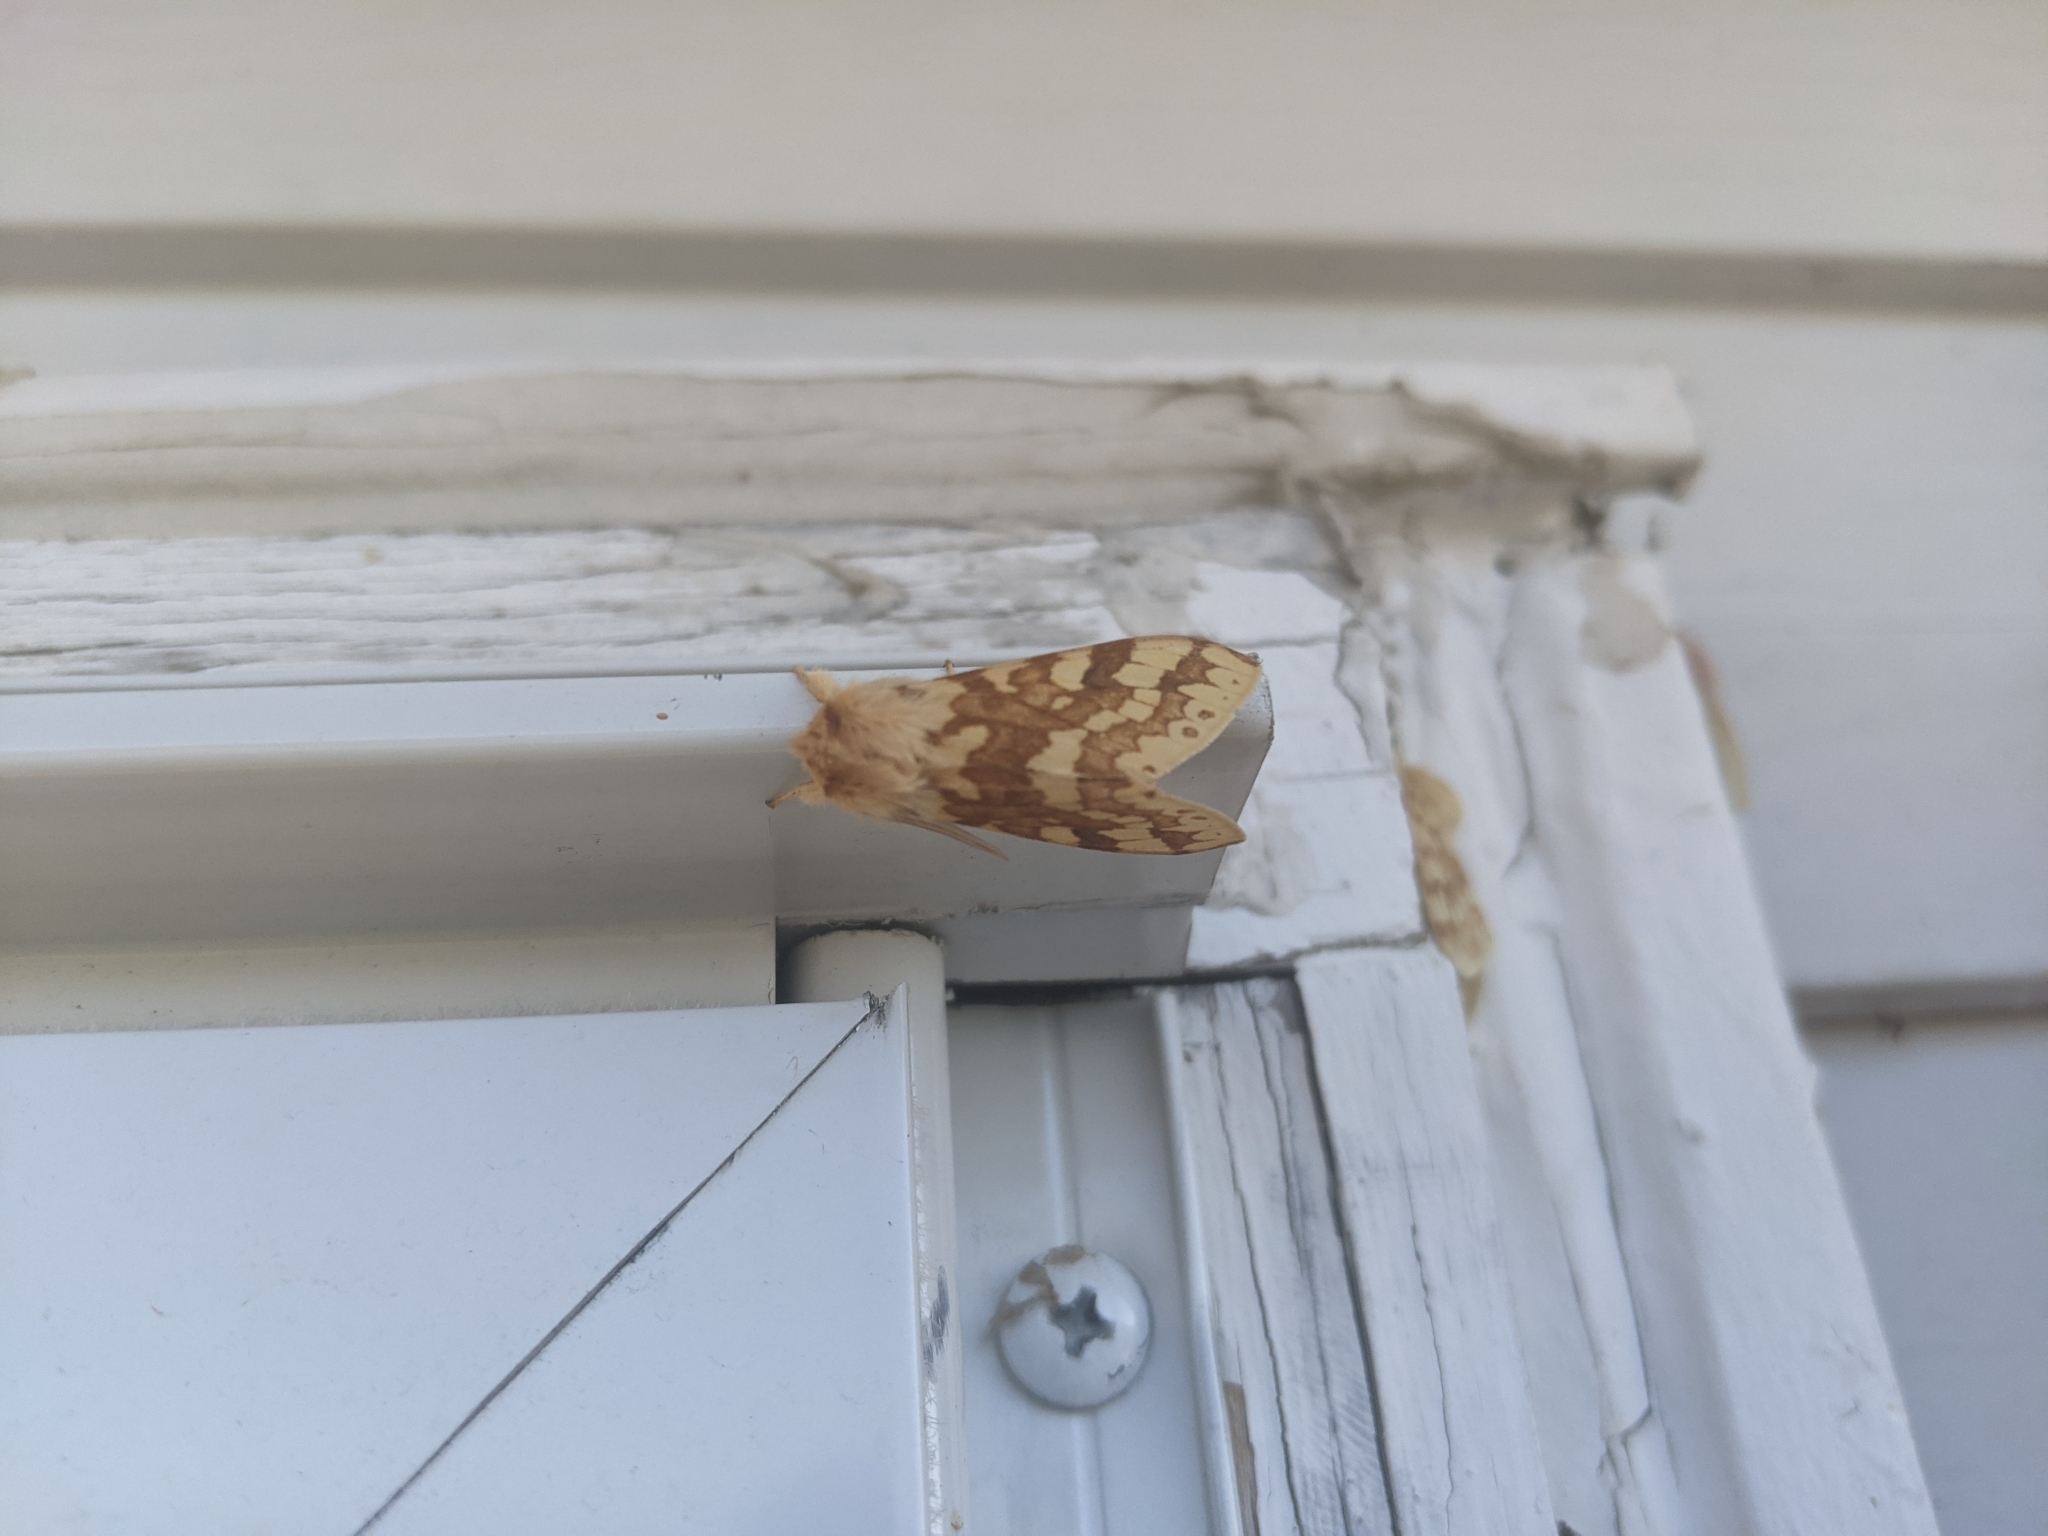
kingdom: Animalia
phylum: Arthropoda
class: Insecta
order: Lepidoptera
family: Erebidae
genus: Lophocampa
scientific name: Lophocampa maculata
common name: Spotted tussock moth
